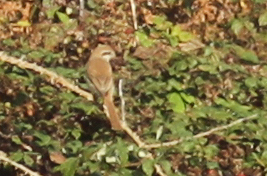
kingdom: Animalia
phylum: Chordata
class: Aves
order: Passeriformes
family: Laniidae
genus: Lanius
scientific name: Lanius cristatus
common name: Brown shrike
